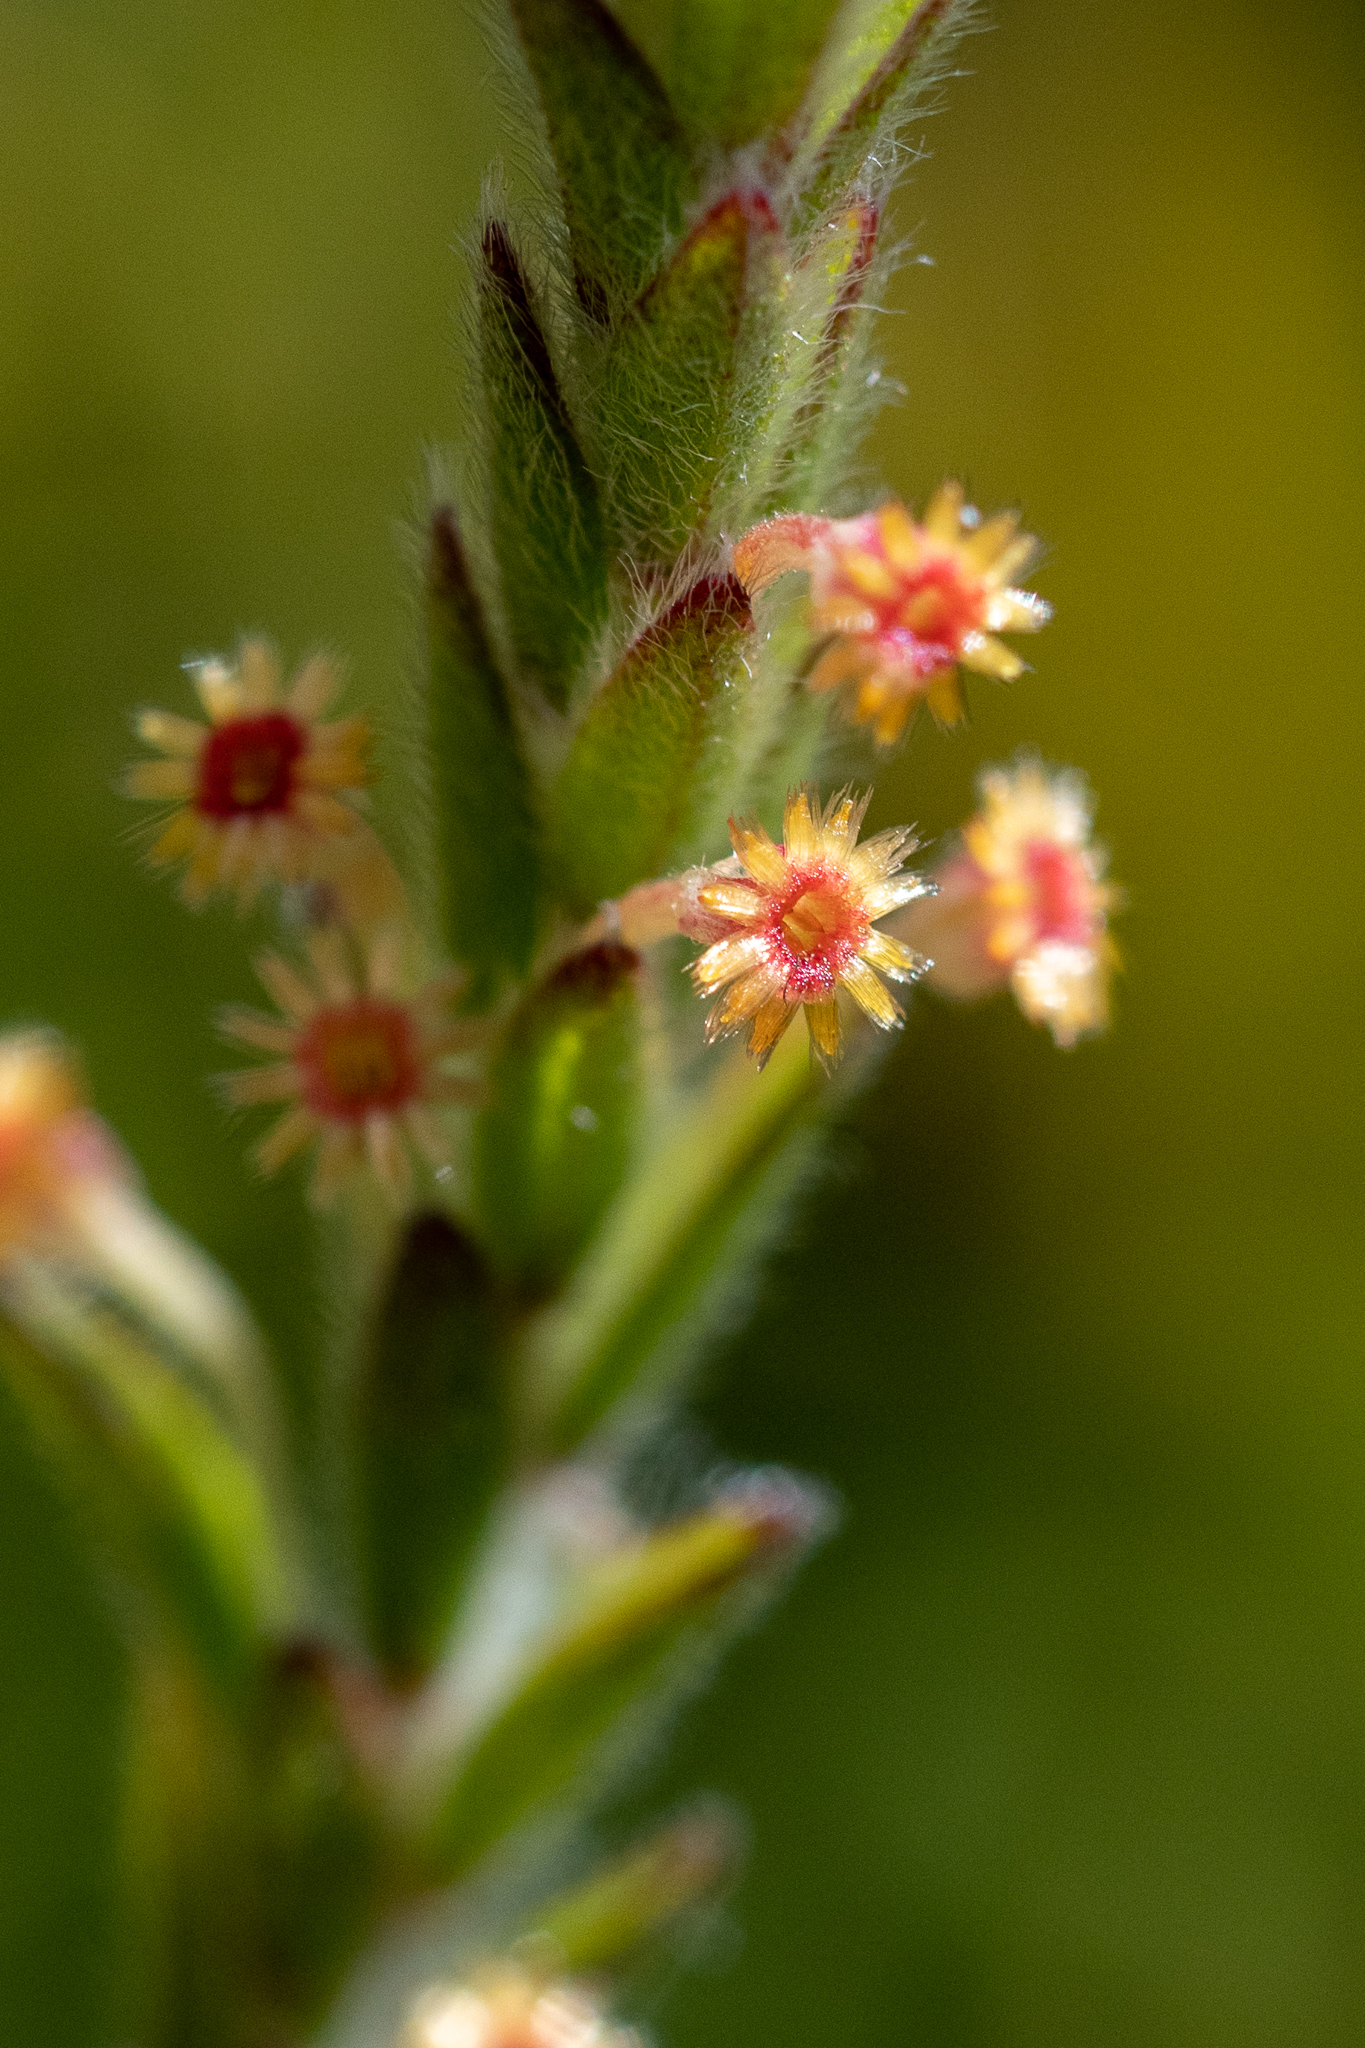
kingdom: Plantae
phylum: Tracheophyta
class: Magnoliopsida
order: Malvales
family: Thymelaeaceae
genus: Struthiola
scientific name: Struthiola tomentosa
